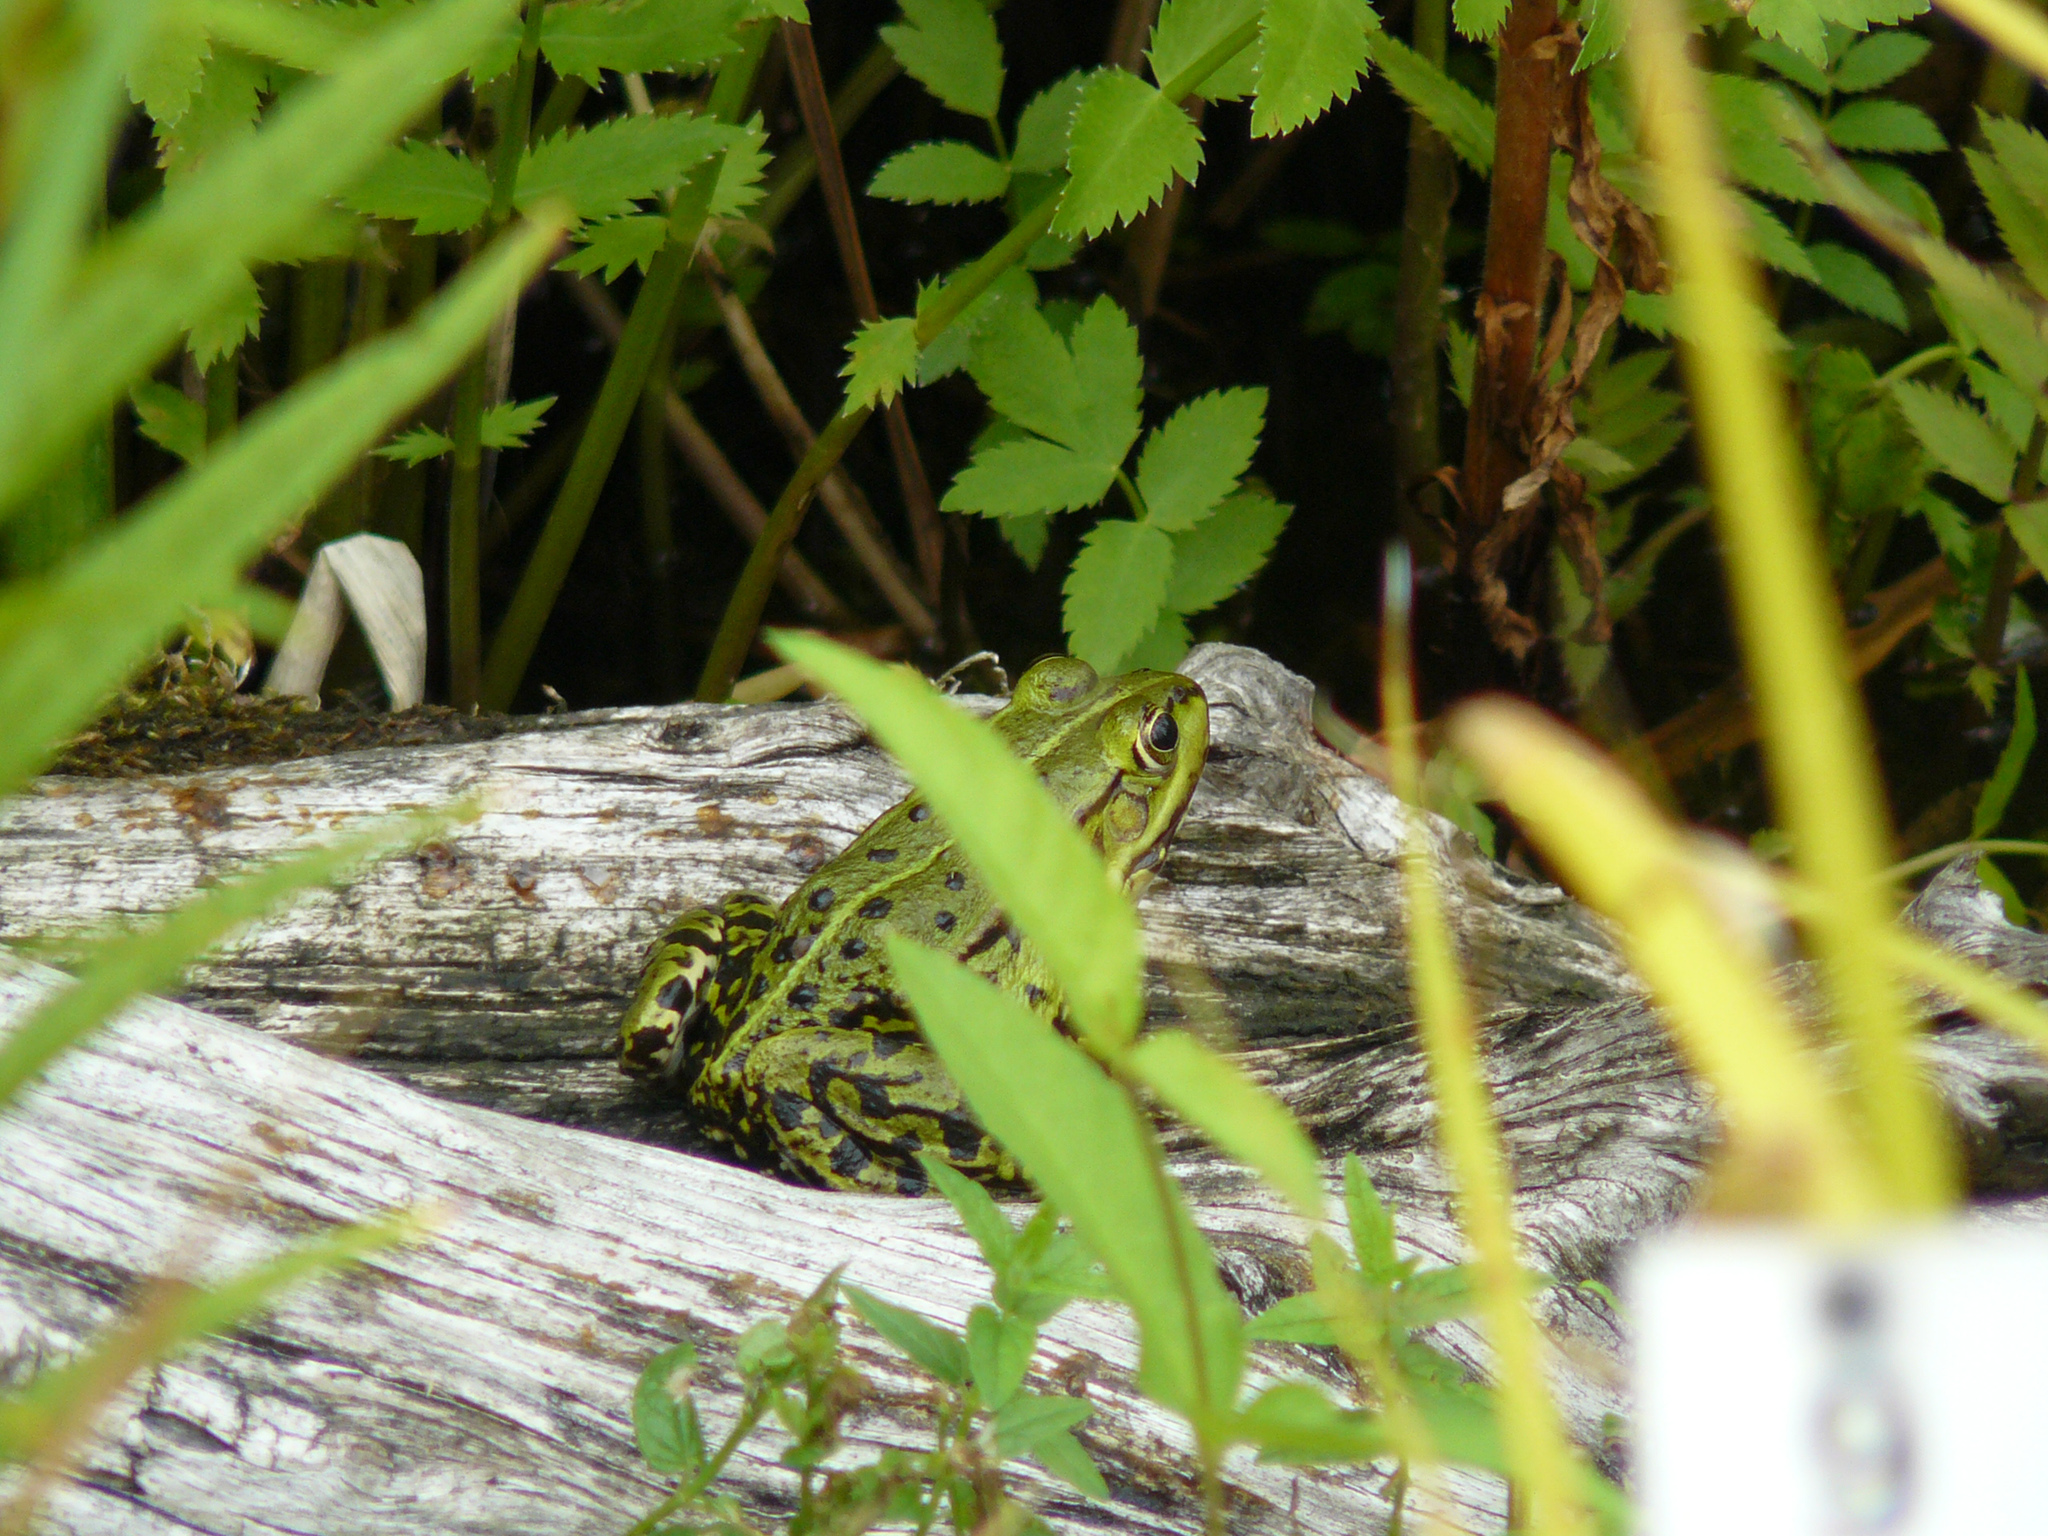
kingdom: Animalia
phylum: Chordata
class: Amphibia
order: Anura
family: Ranidae
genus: Pelophylax
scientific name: Pelophylax
